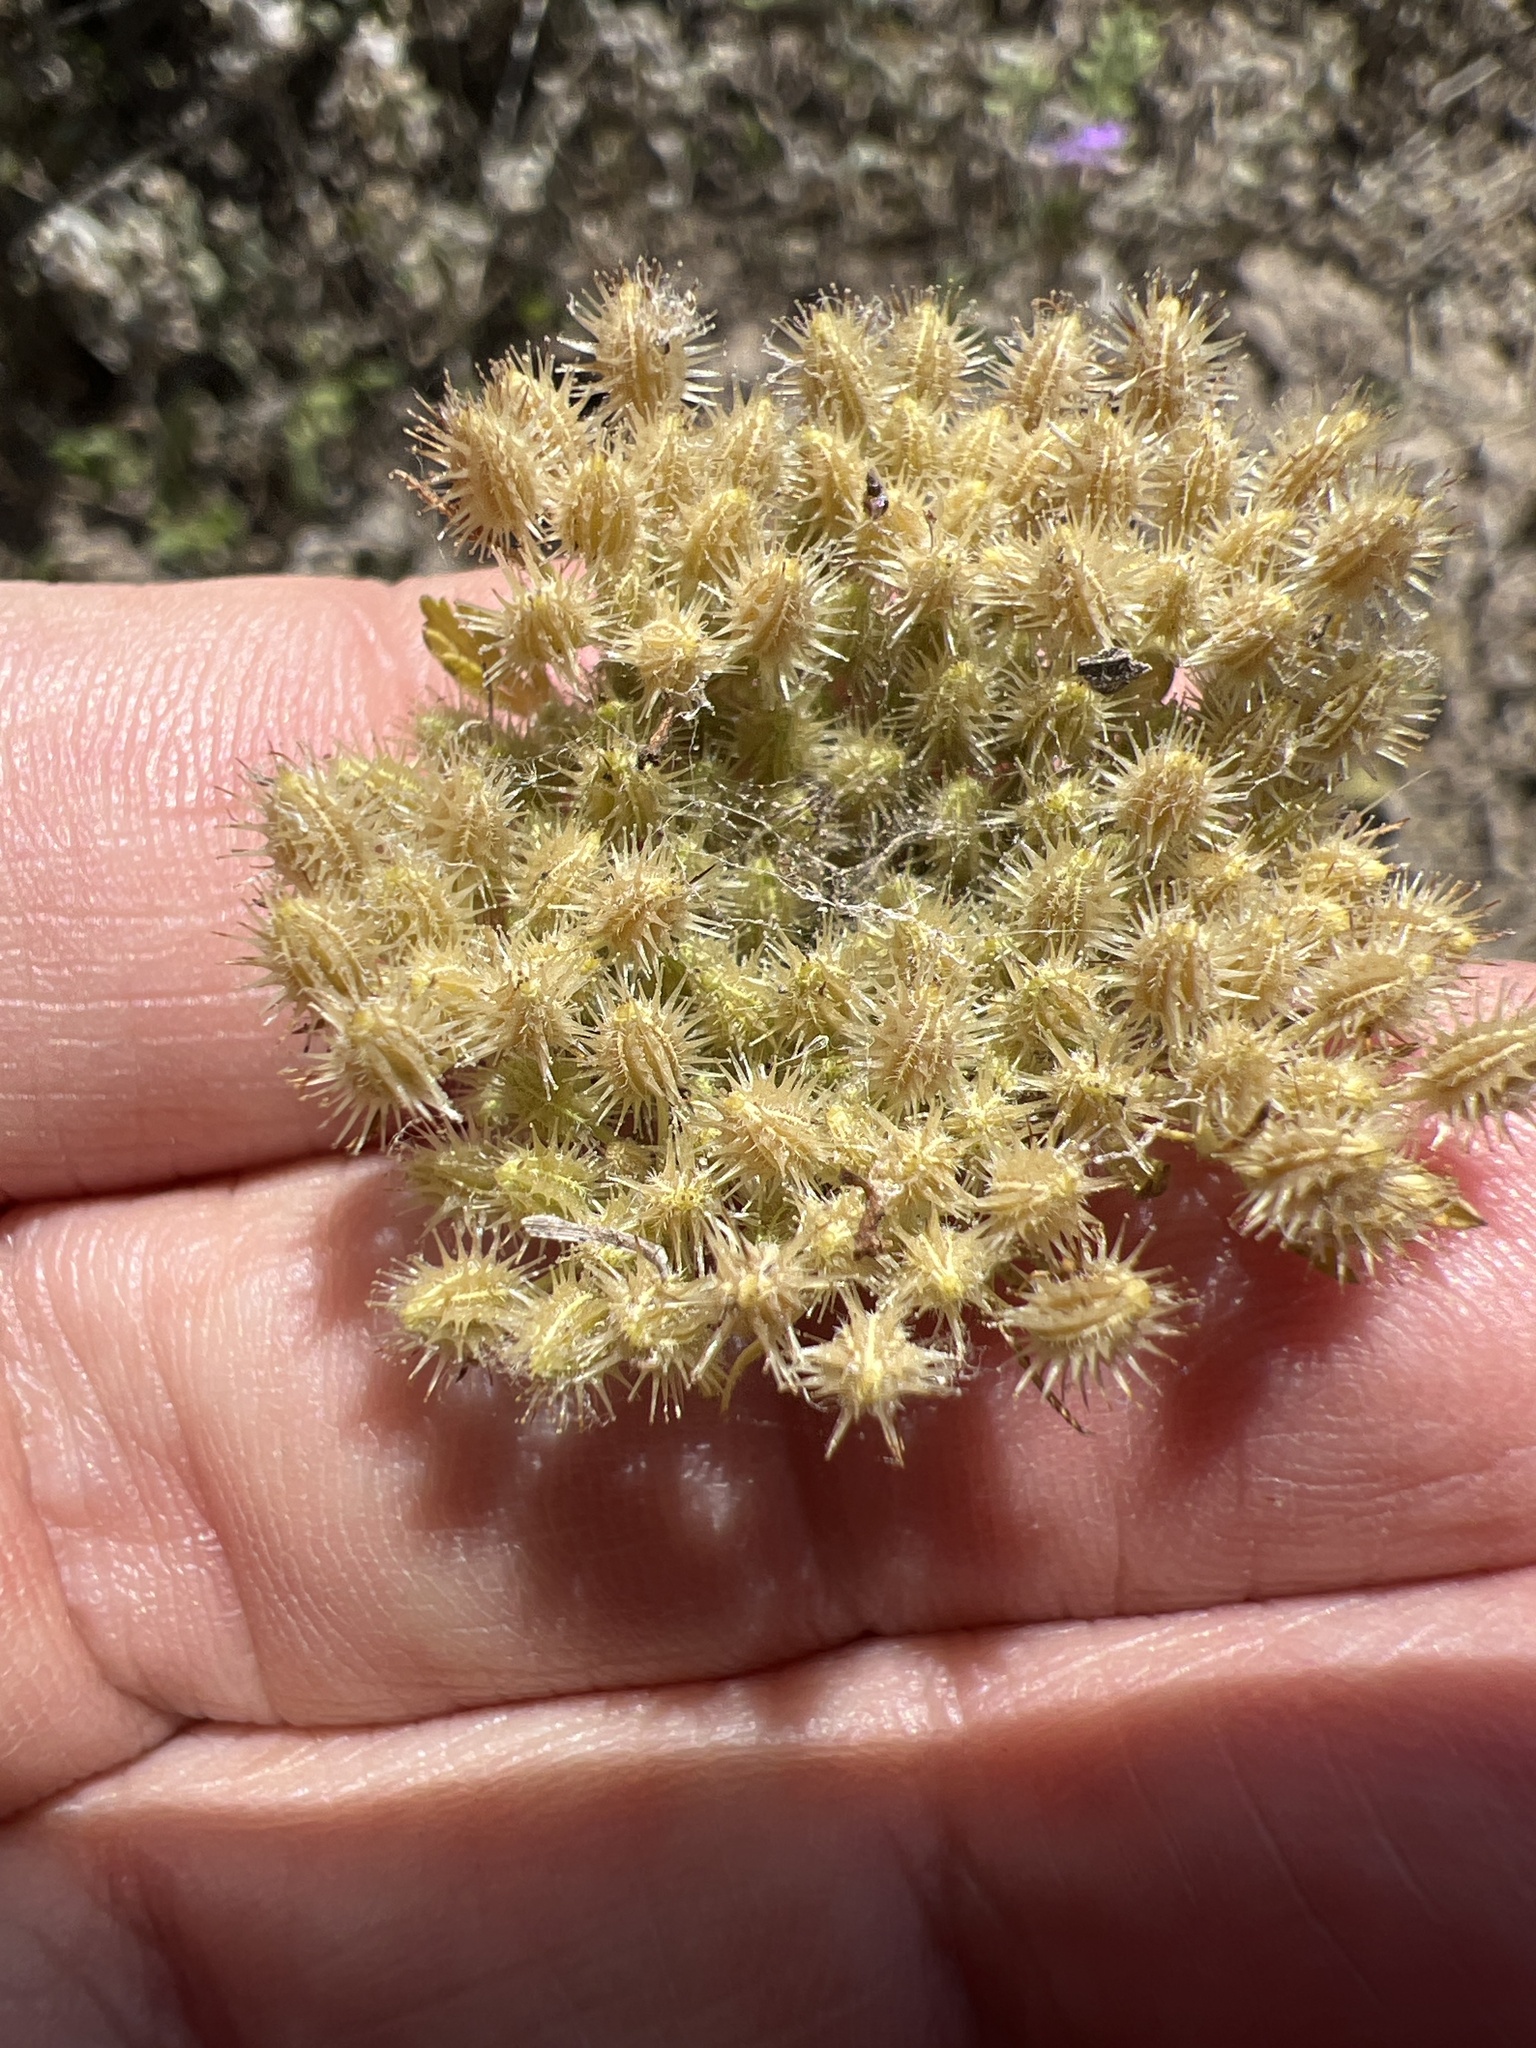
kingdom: Plantae
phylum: Tracheophyta
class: Magnoliopsida
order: Apiales
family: Apiaceae
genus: Daucus
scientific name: Daucus pusillus
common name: Southwest wild carrot
